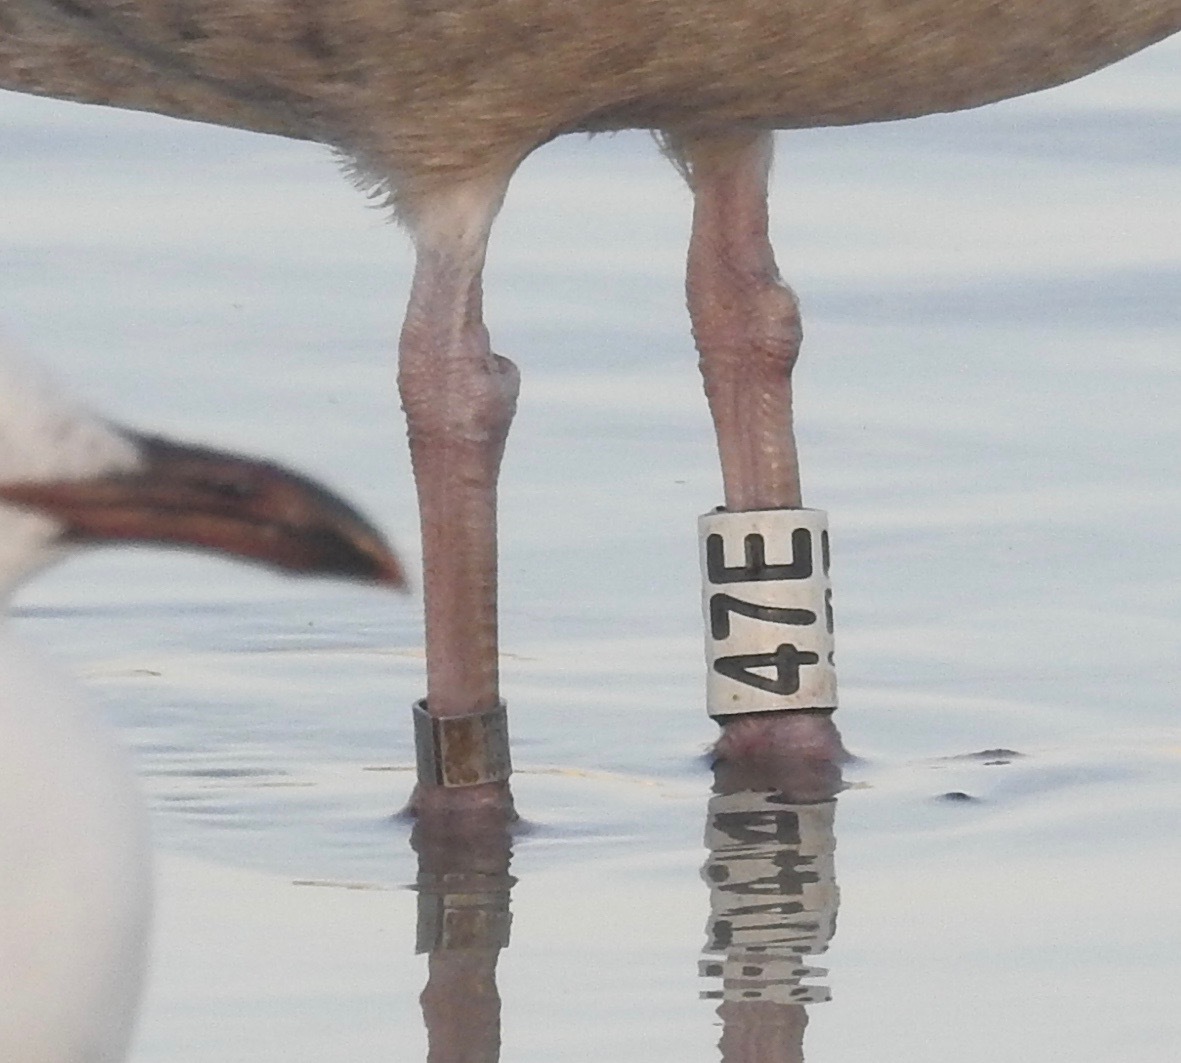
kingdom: Animalia
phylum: Chordata
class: Aves
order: Charadriiformes
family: Laridae
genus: Larus
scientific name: Larus argentatus
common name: Herring gull
